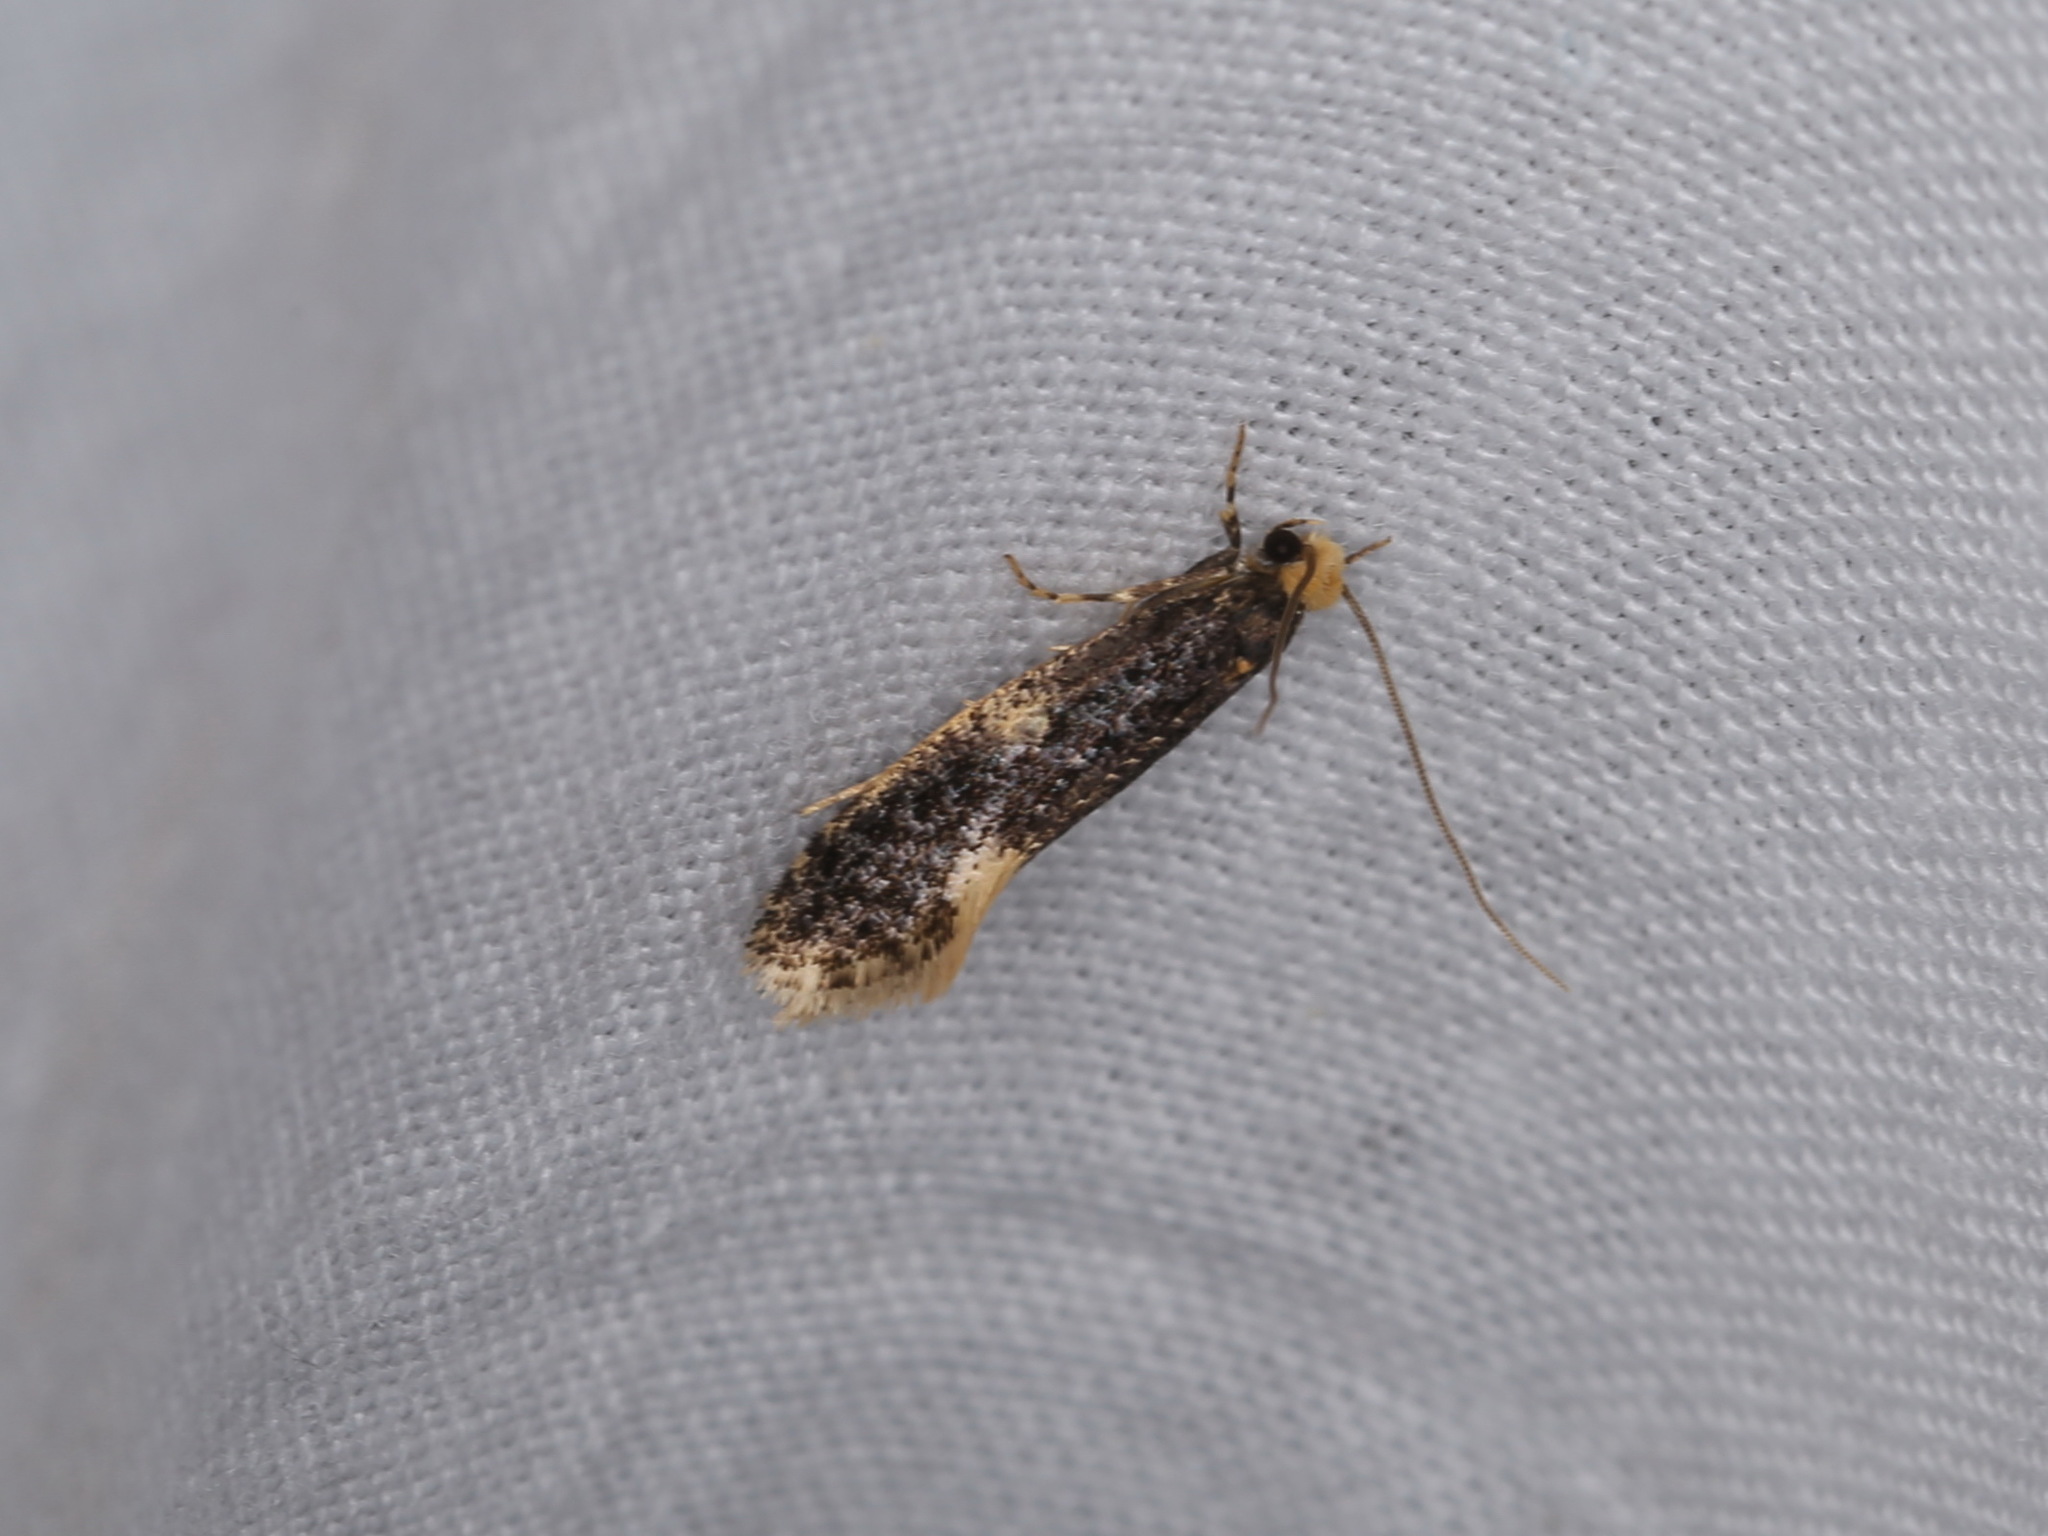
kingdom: Animalia
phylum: Arthropoda
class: Insecta
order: Lepidoptera
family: Tineidae
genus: Monopis
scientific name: Monopis weaverella
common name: Carrion moth
